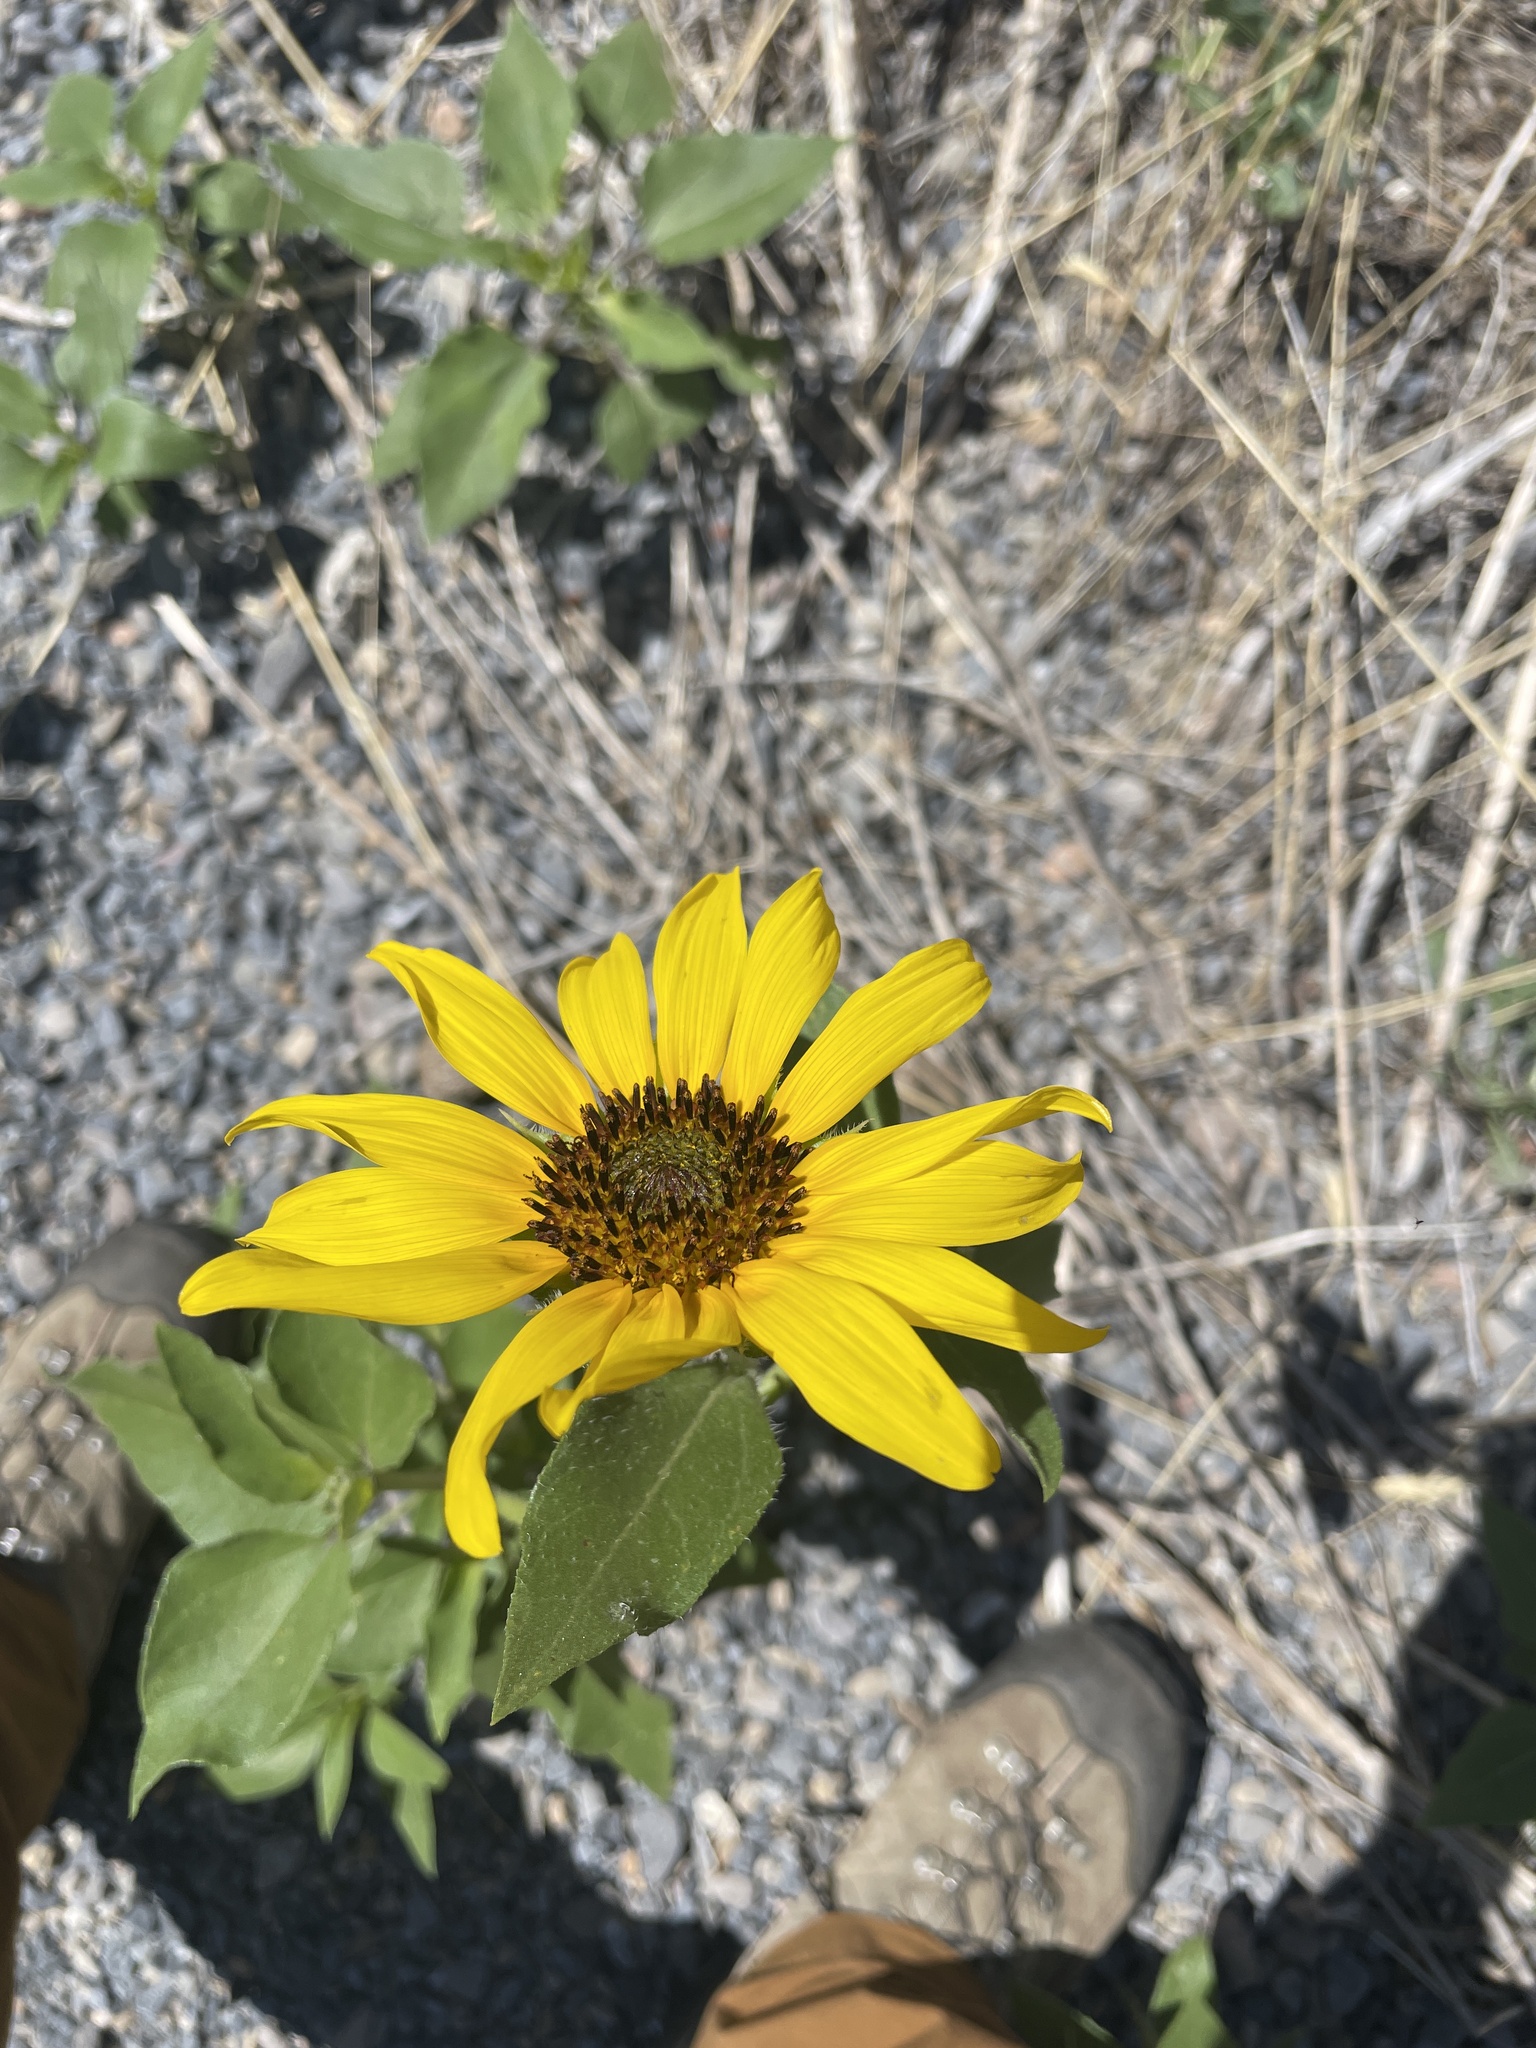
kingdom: Plantae
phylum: Tracheophyta
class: Magnoliopsida
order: Asterales
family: Asteraceae
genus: Helianthus
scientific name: Helianthus annuus
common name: Sunflower
